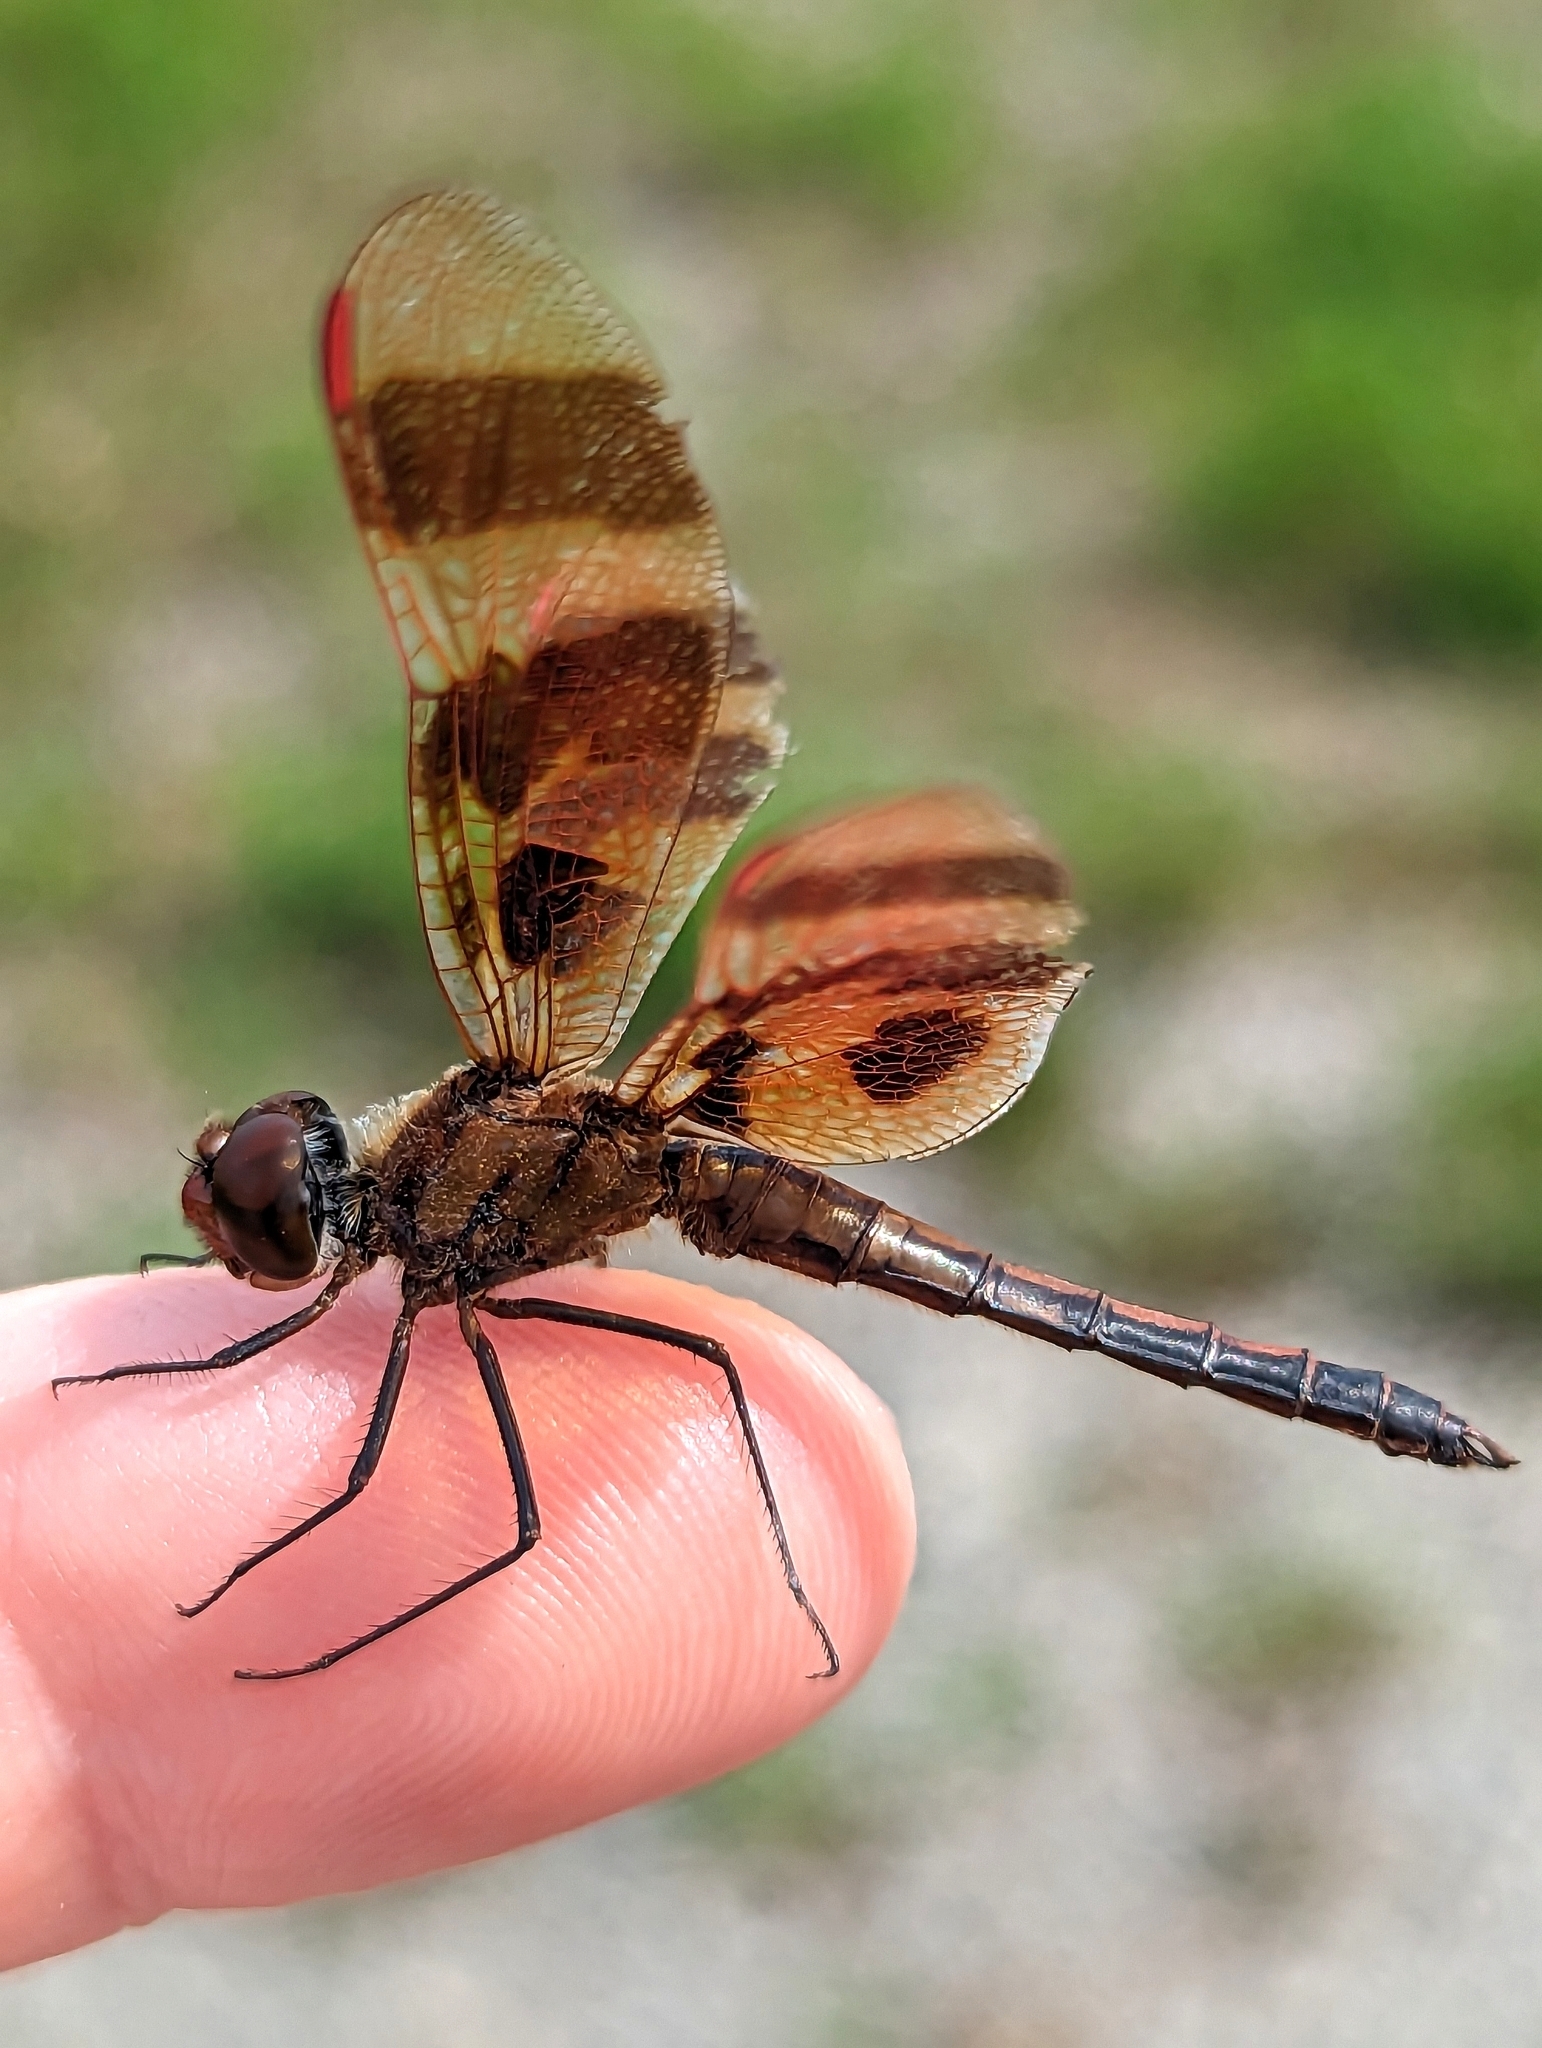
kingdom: Animalia
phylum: Arthropoda
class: Insecta
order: Odonata
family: Libellulidae
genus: Celithemis
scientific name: Celithemis eponina
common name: Halloween pennant
